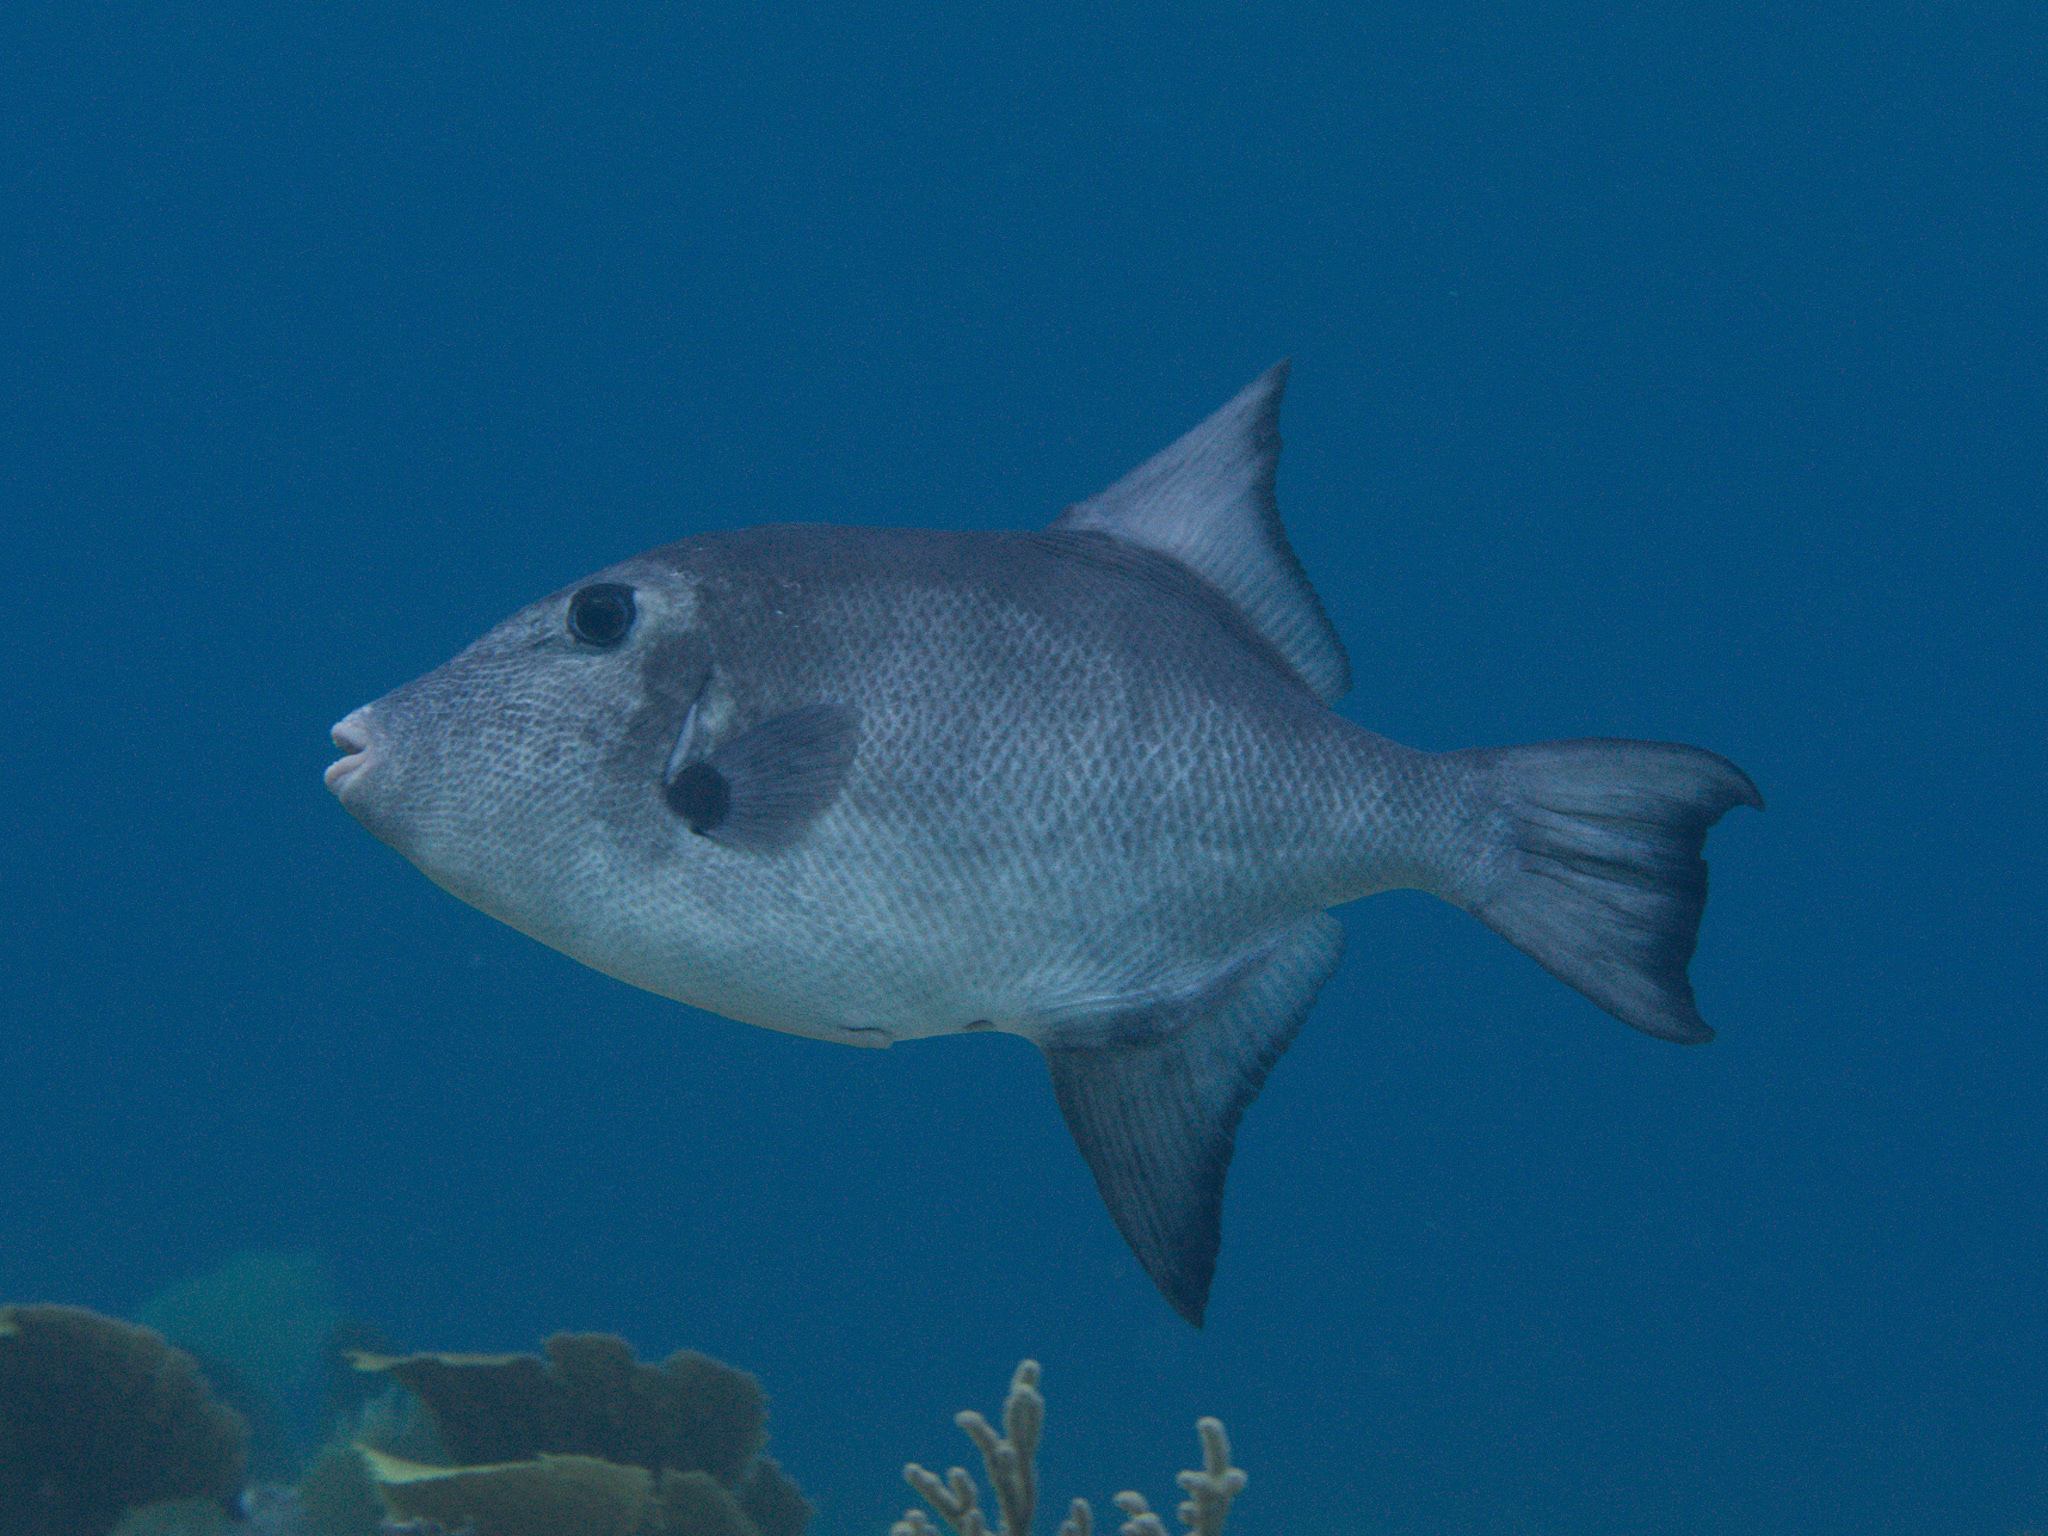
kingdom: Animalia
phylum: Chordata
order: Tetraodontiformes
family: Balistidae
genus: Canthidermis
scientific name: Canthidermis sufflamen
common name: Ocean triggerfish
